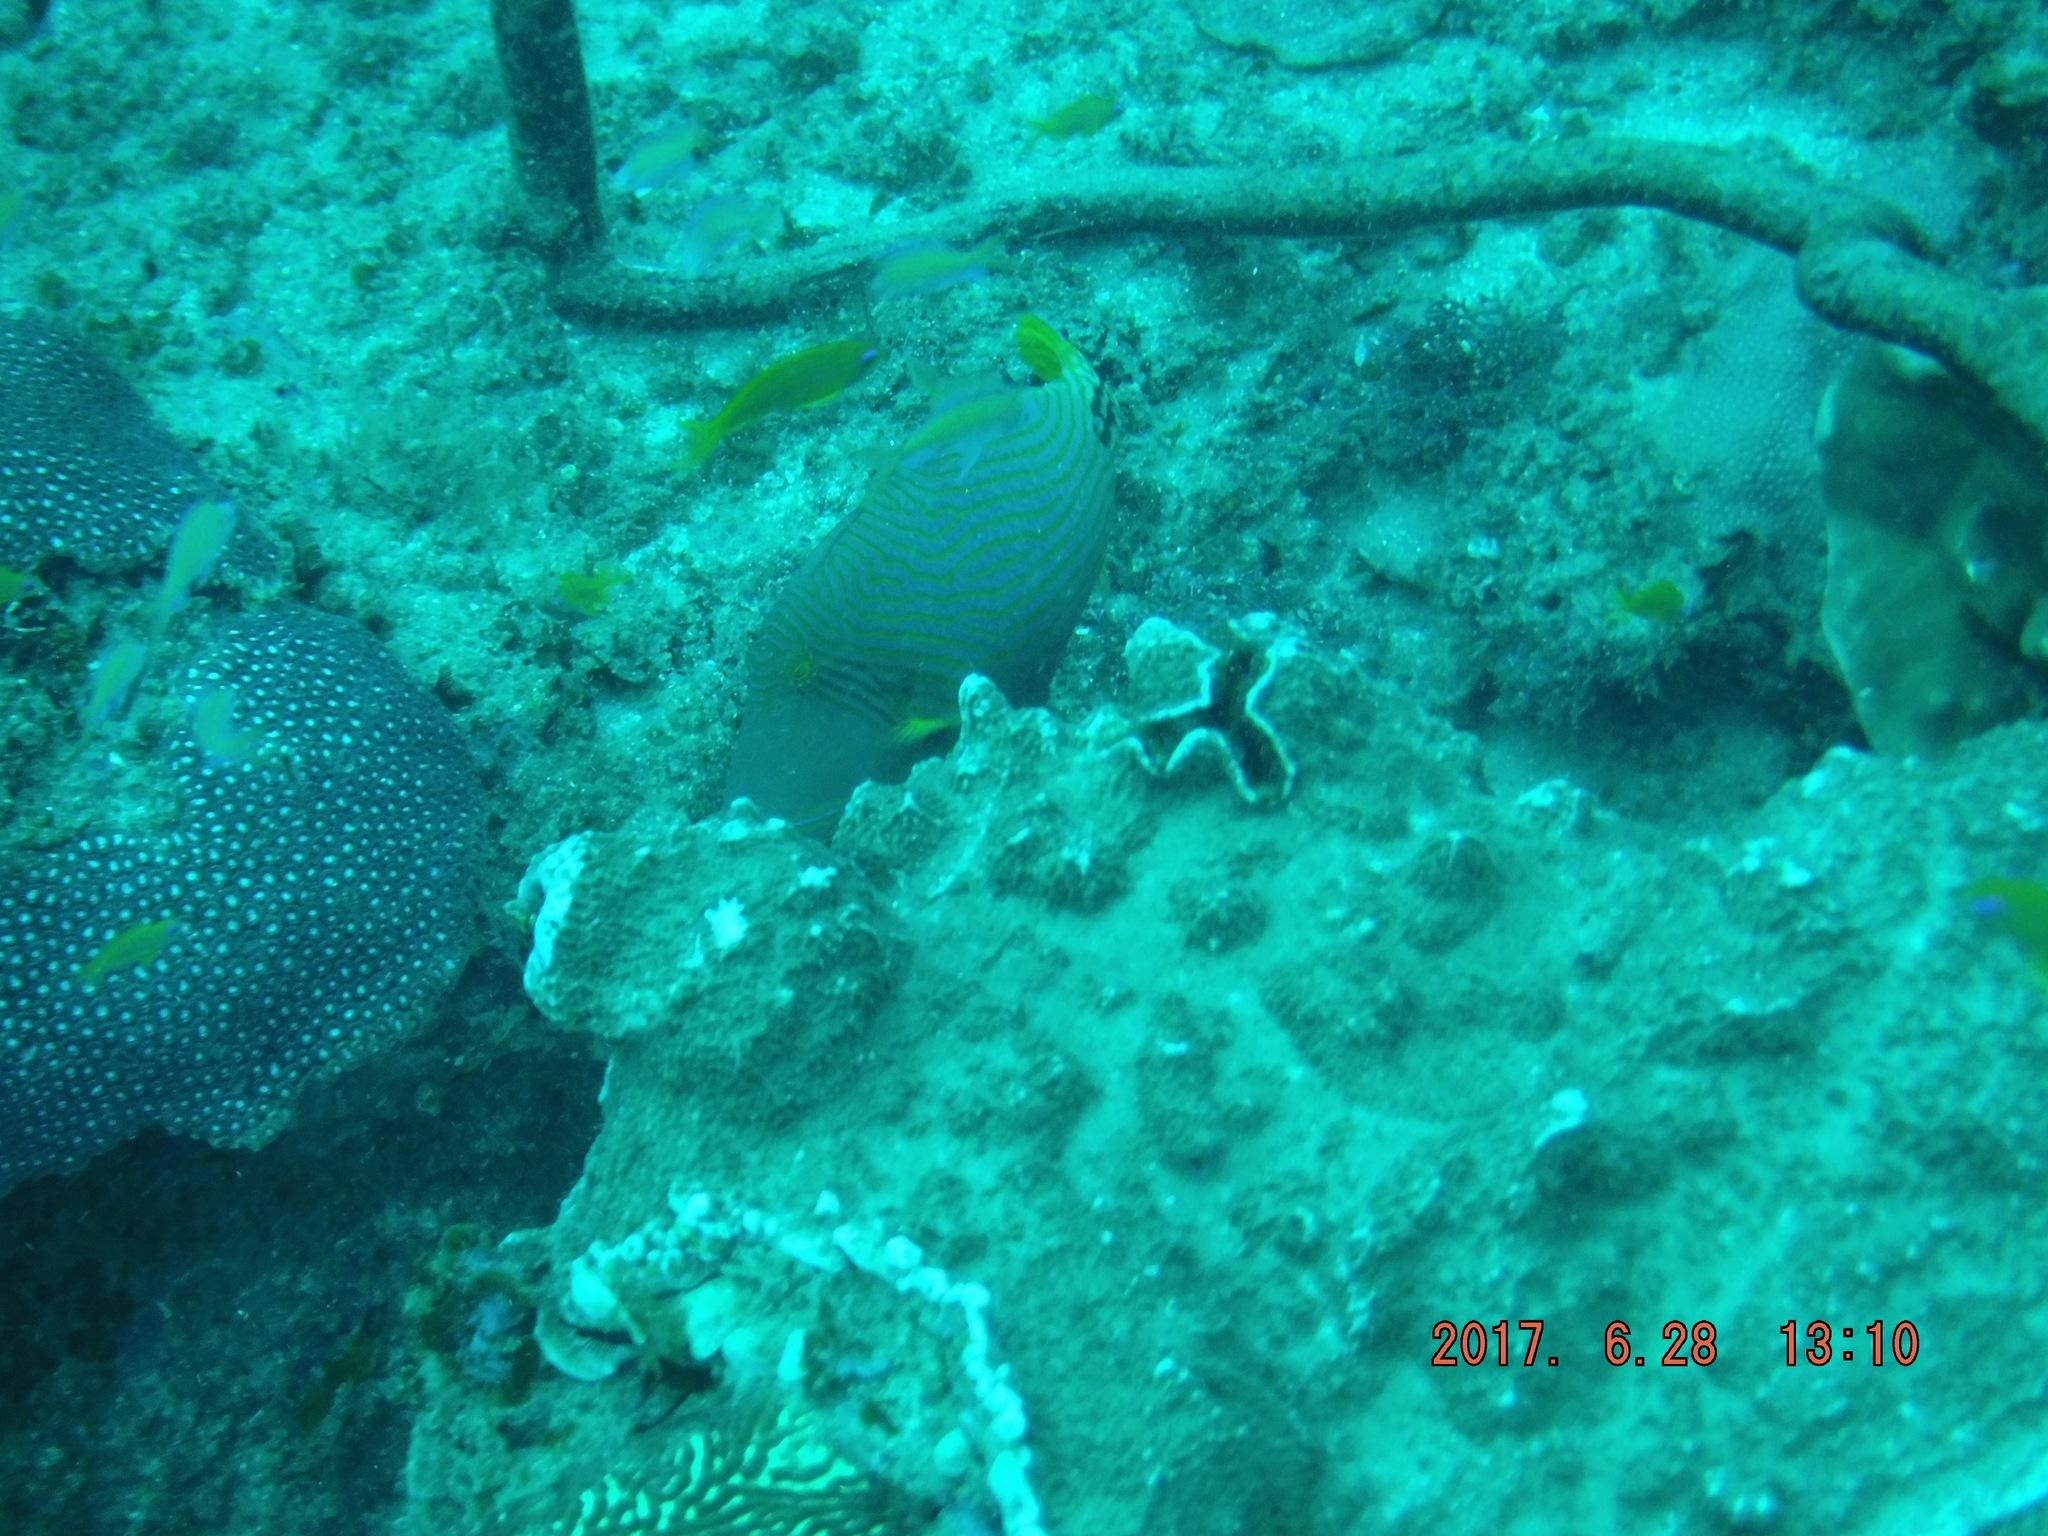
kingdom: Animalia
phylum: Chordata
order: Tetraodontiformes
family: Balistidae
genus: Balistapus
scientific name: Balistapus undulatus
